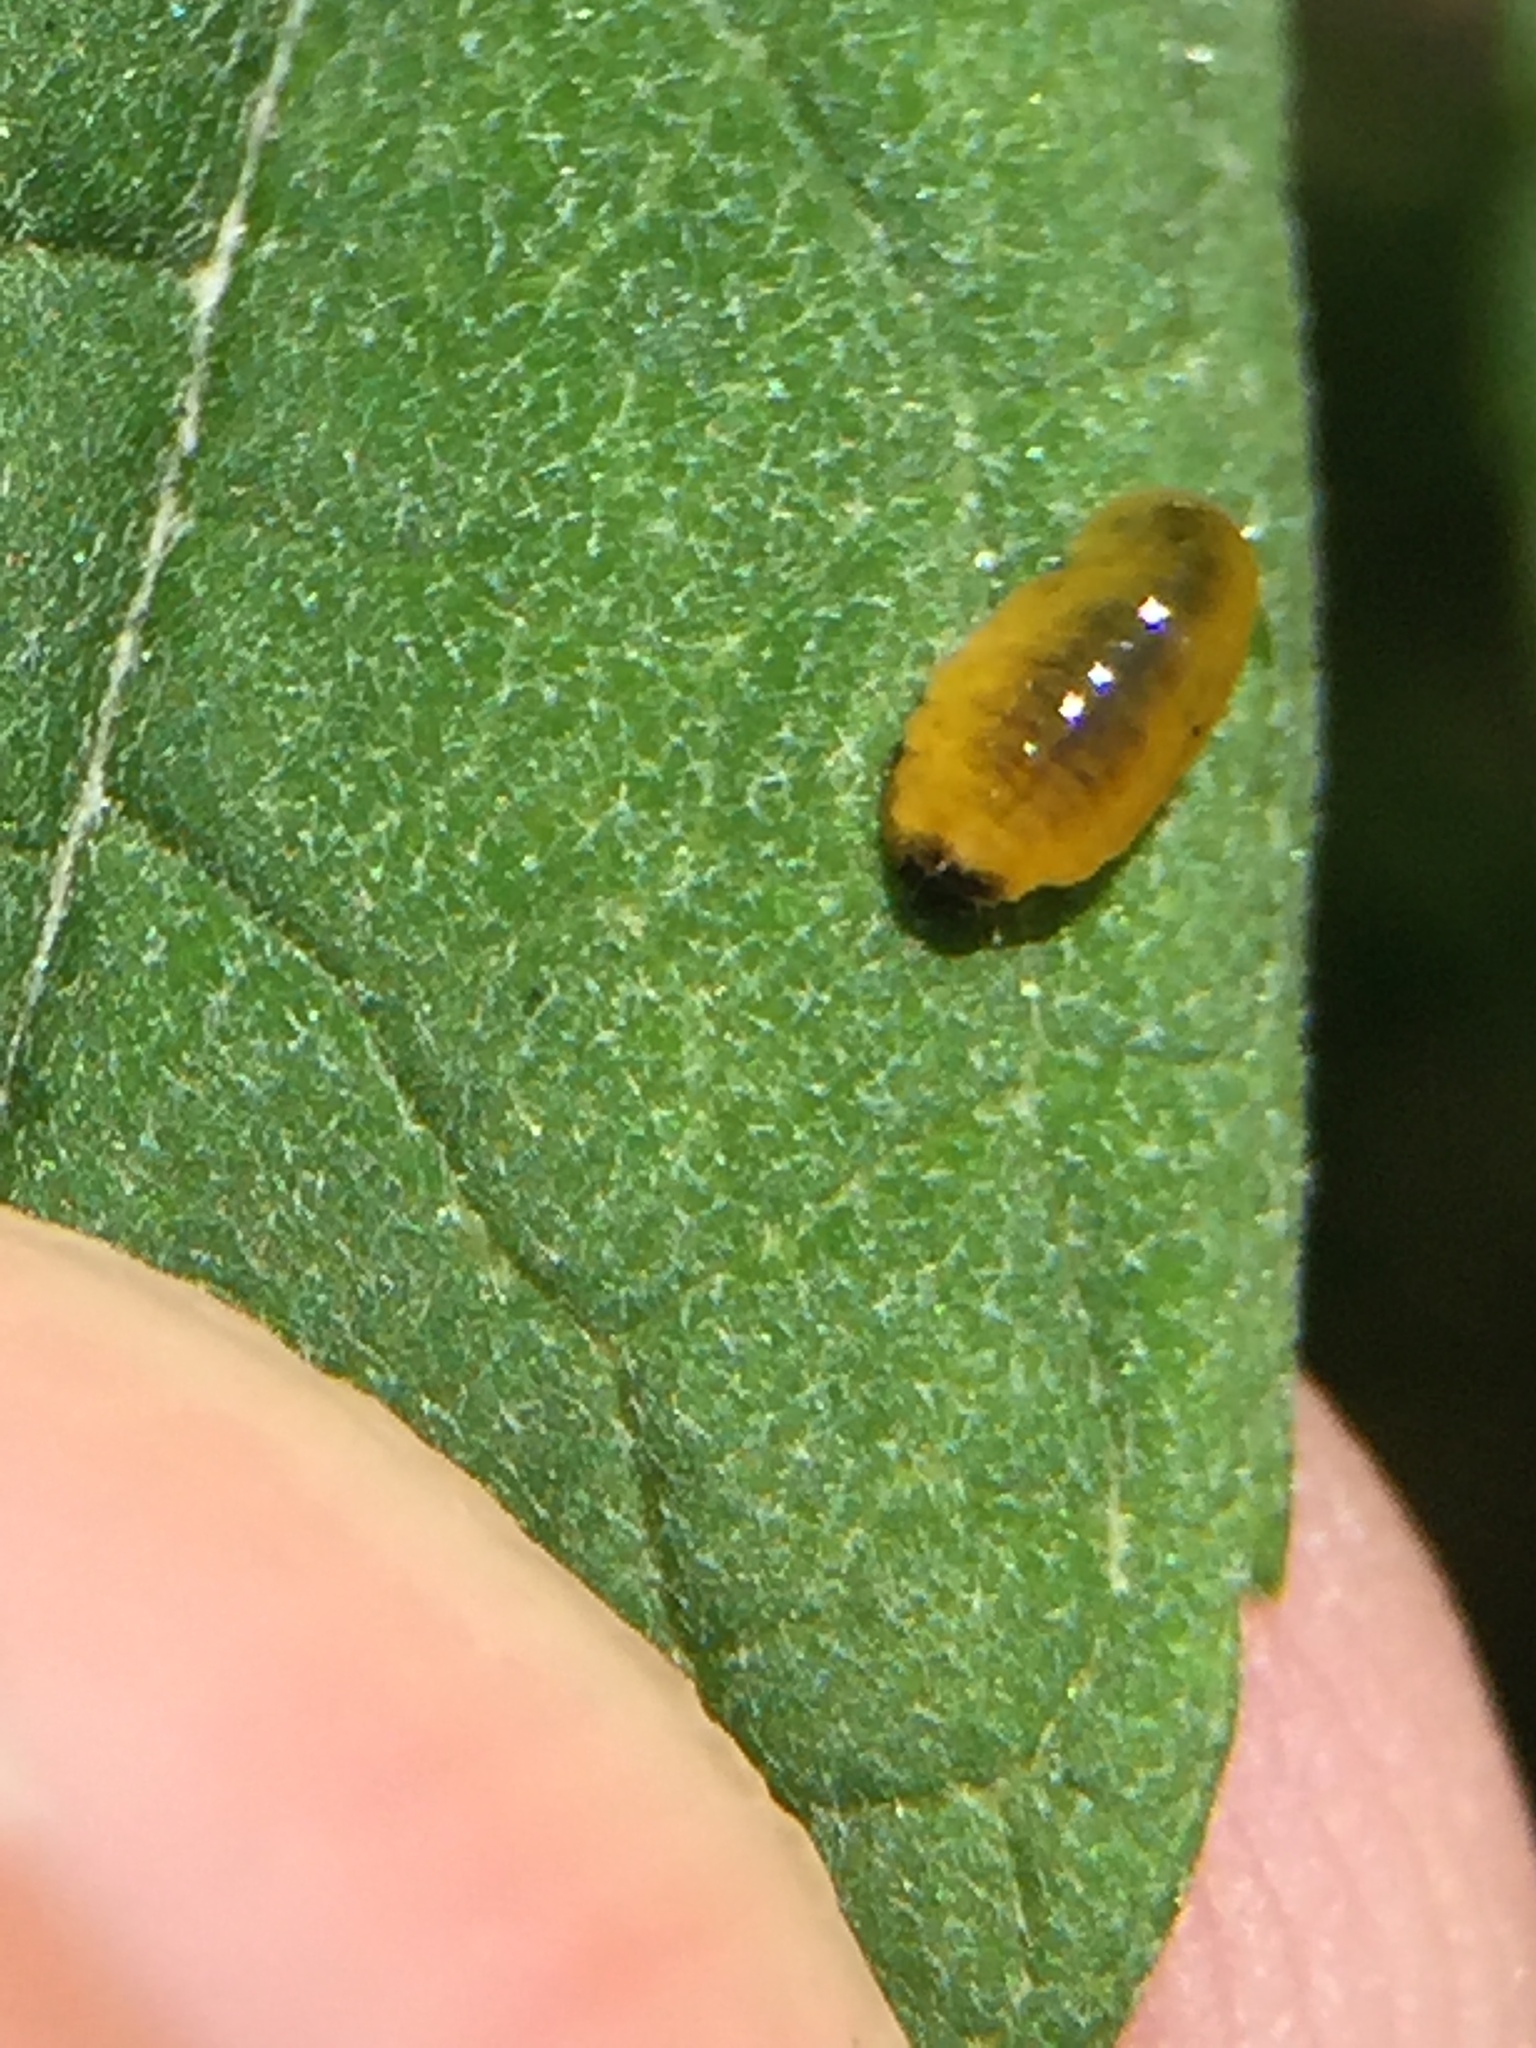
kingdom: Animalia
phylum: Arthropoda
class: Insecta
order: Coleoptera
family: Curculionidae
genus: Cleopus
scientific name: Cleopus japonicus
